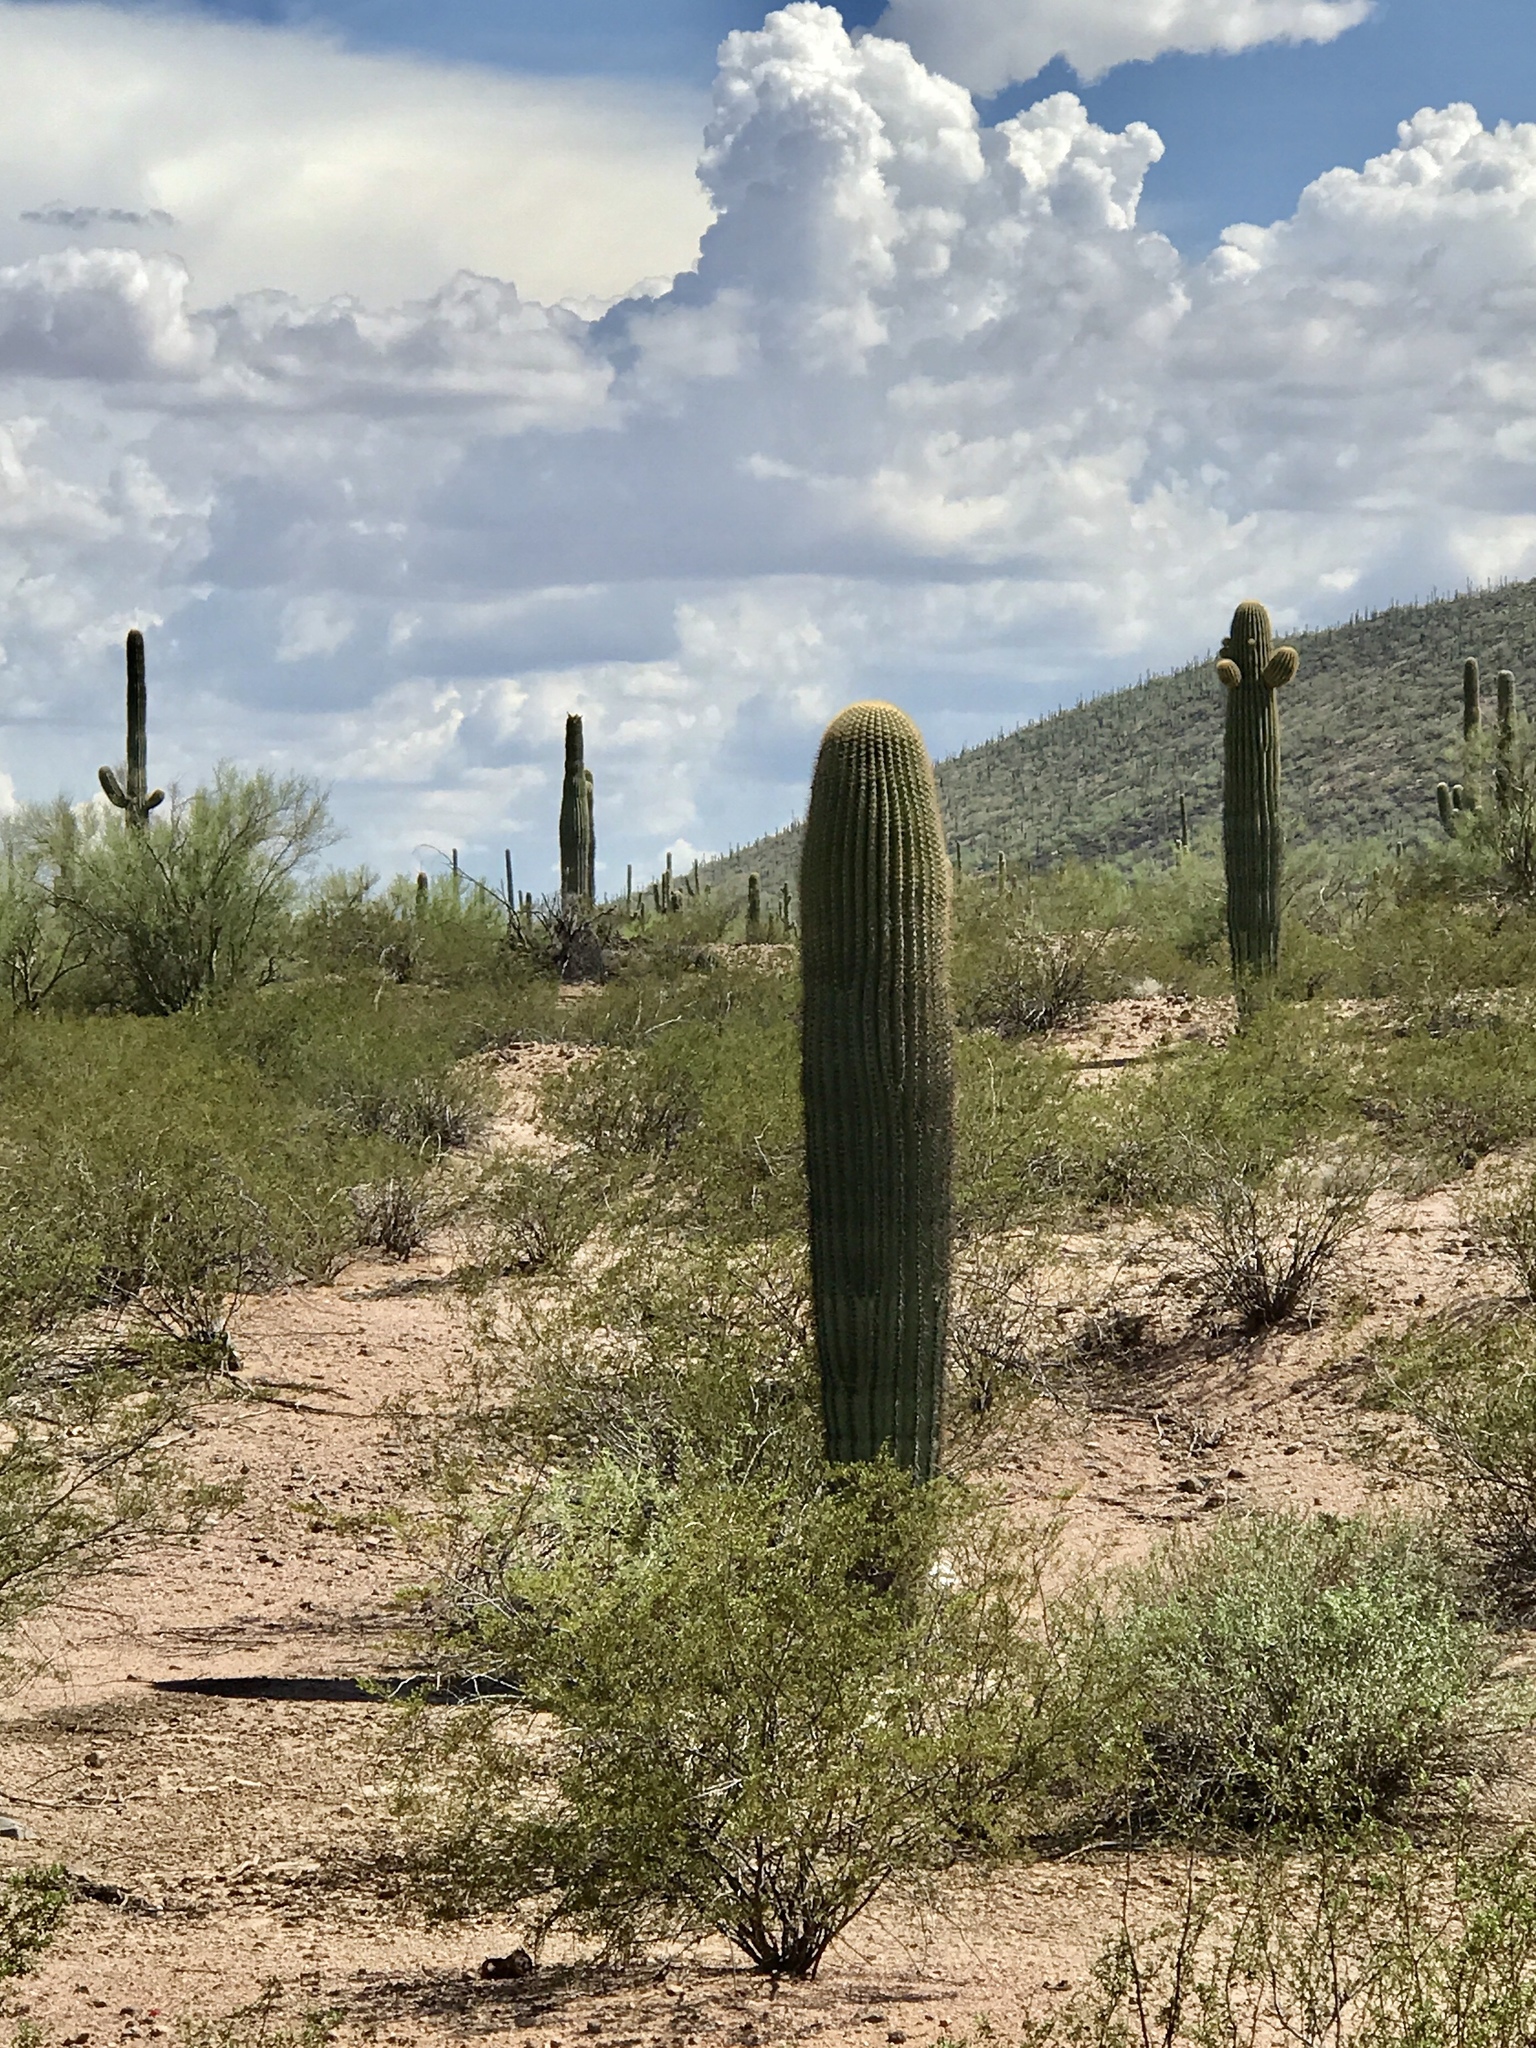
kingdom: Plantae
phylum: Tracheophyta
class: Magnoliopsida
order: Caryophyllales
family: Cactaceae
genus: Carnegiea
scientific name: Carnegiea gigantea
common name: Saguaro
